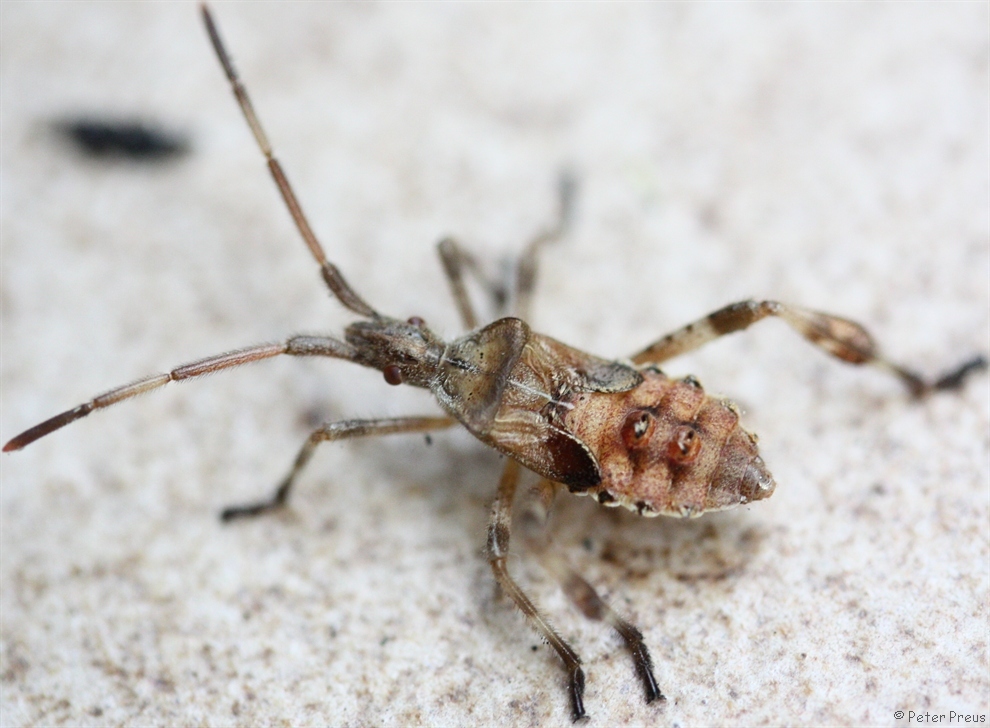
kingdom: Animalia
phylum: Arthropoda
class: Insecta
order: Hemiptera
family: Coreidae
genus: Leptoglossus
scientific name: Leptoglossus occidentalis
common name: Western conifer-seed bug
